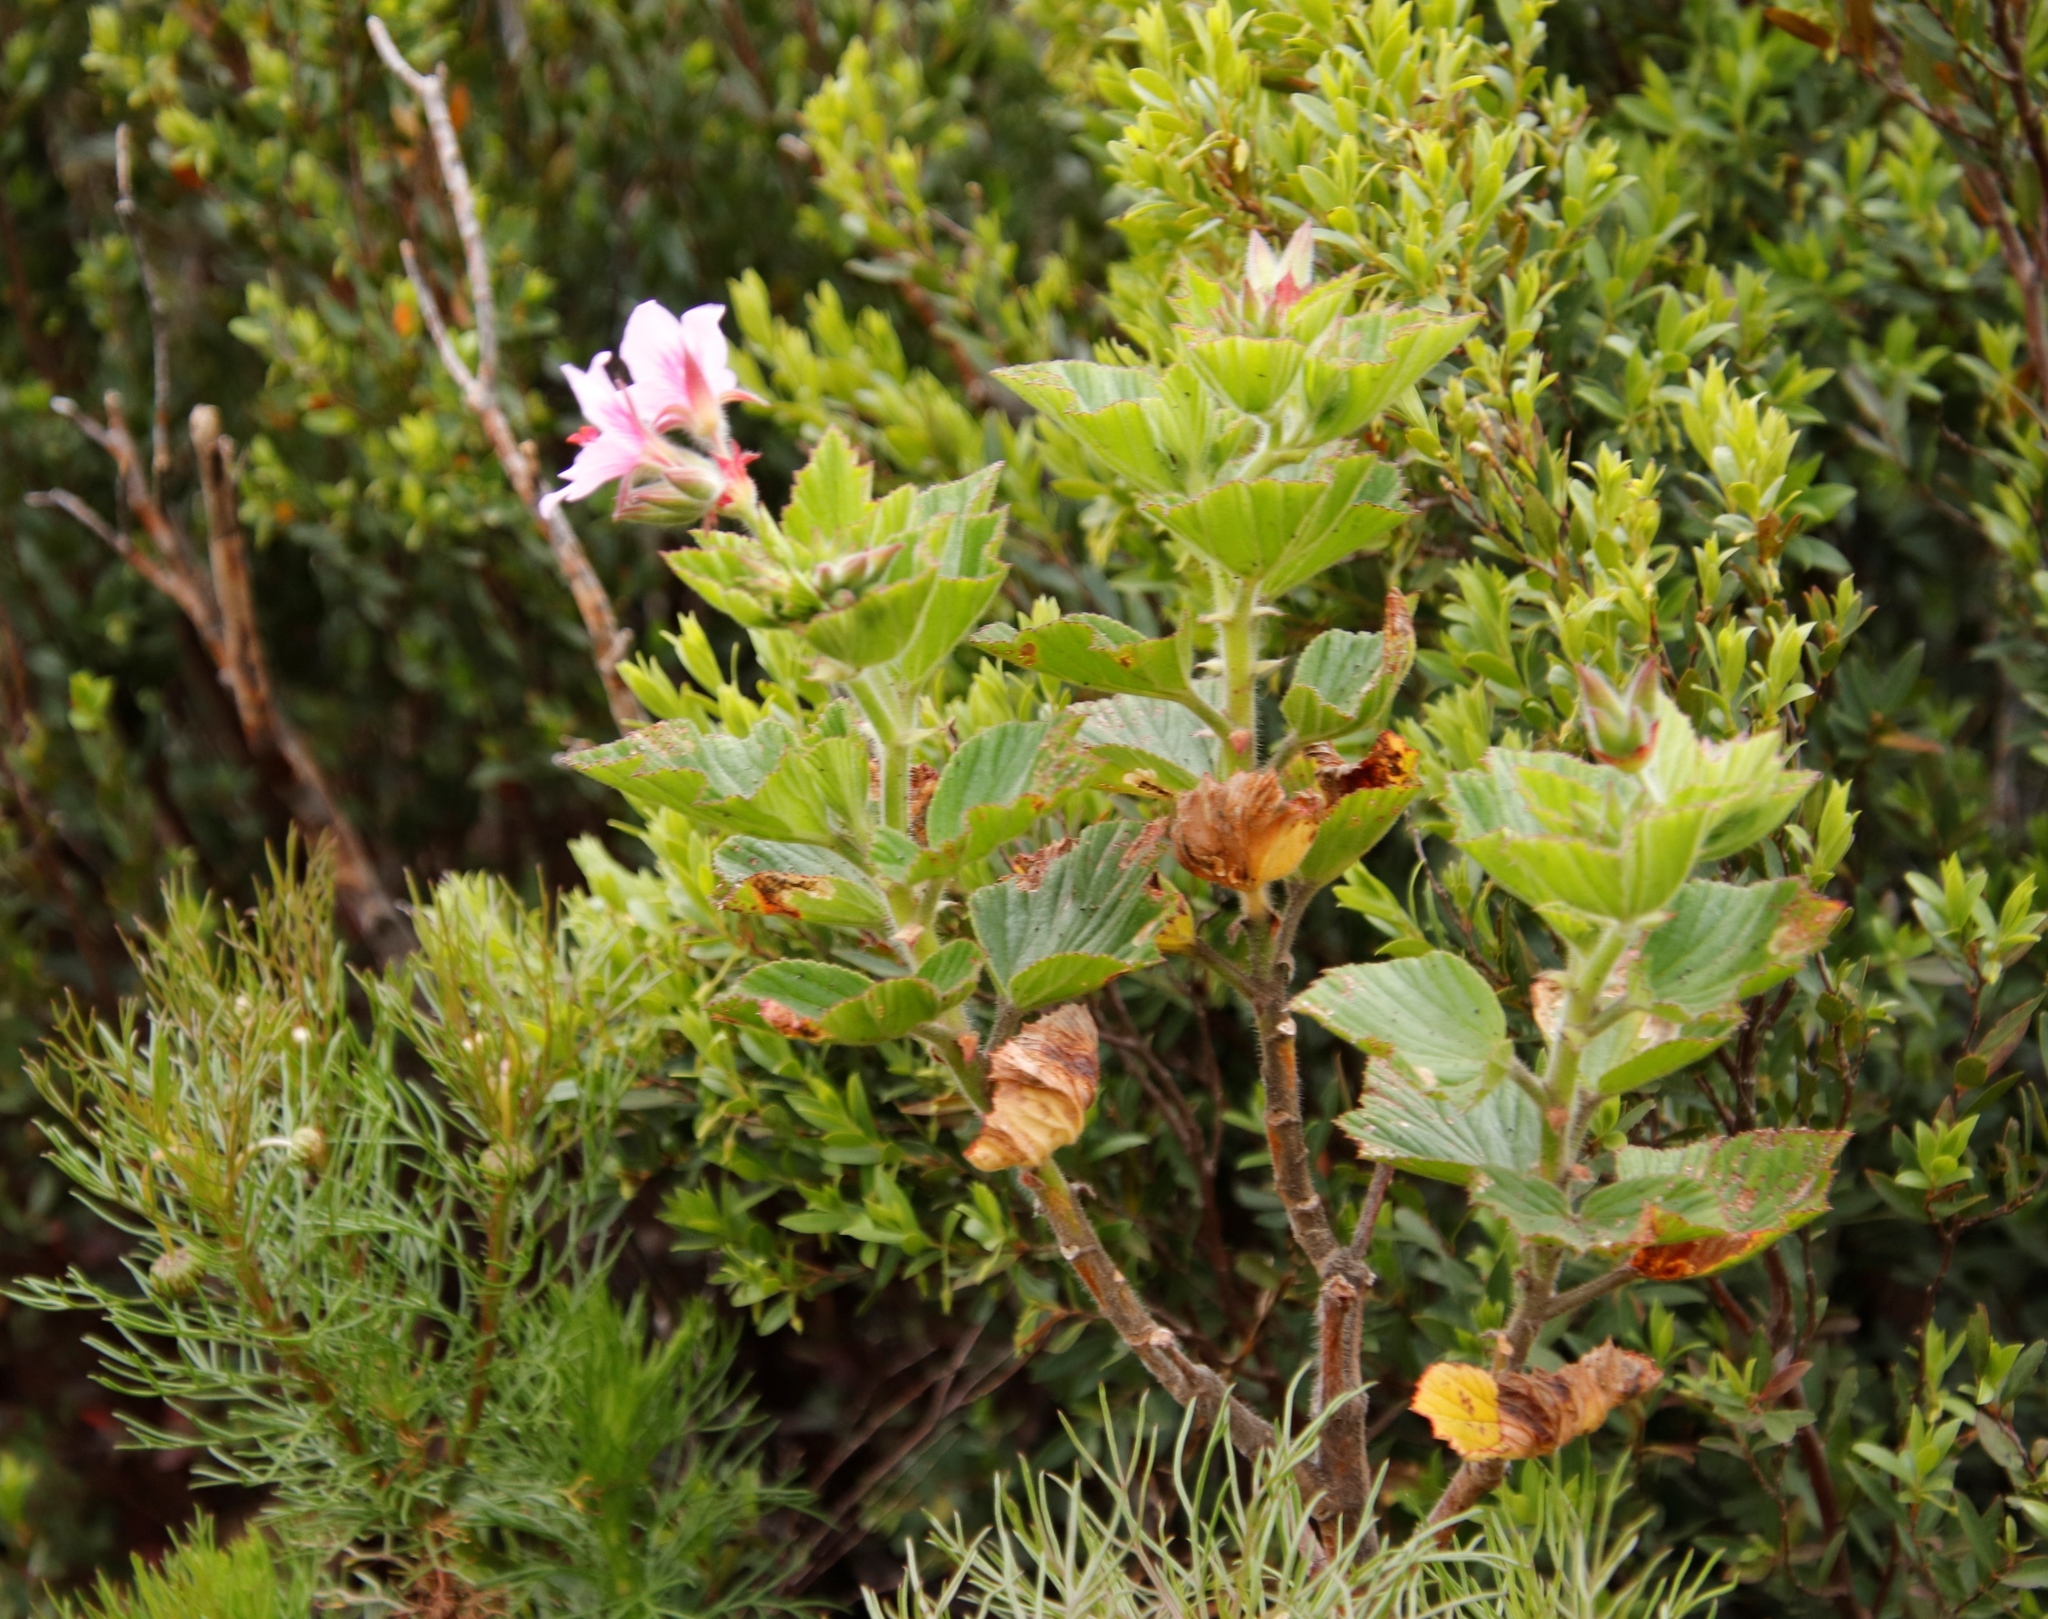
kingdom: Plantae
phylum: Tracheophyta
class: Magnoliopsida
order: Geraniales
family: Geraniaceae
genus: Pelargonium
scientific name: Pelargonium cucullatum
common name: Tree pelargonium
